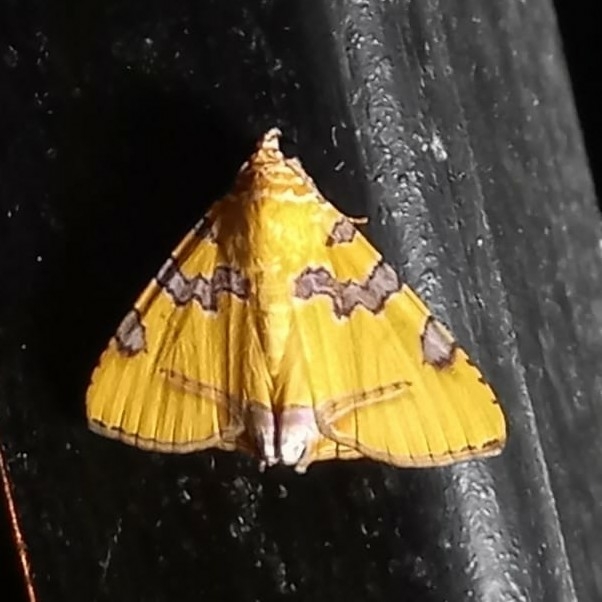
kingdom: Animalia
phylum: Arthropoda
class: Insecta
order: Lepidoptera
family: Erebidae
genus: Eulepidotis
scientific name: Eulepidotis hermura
